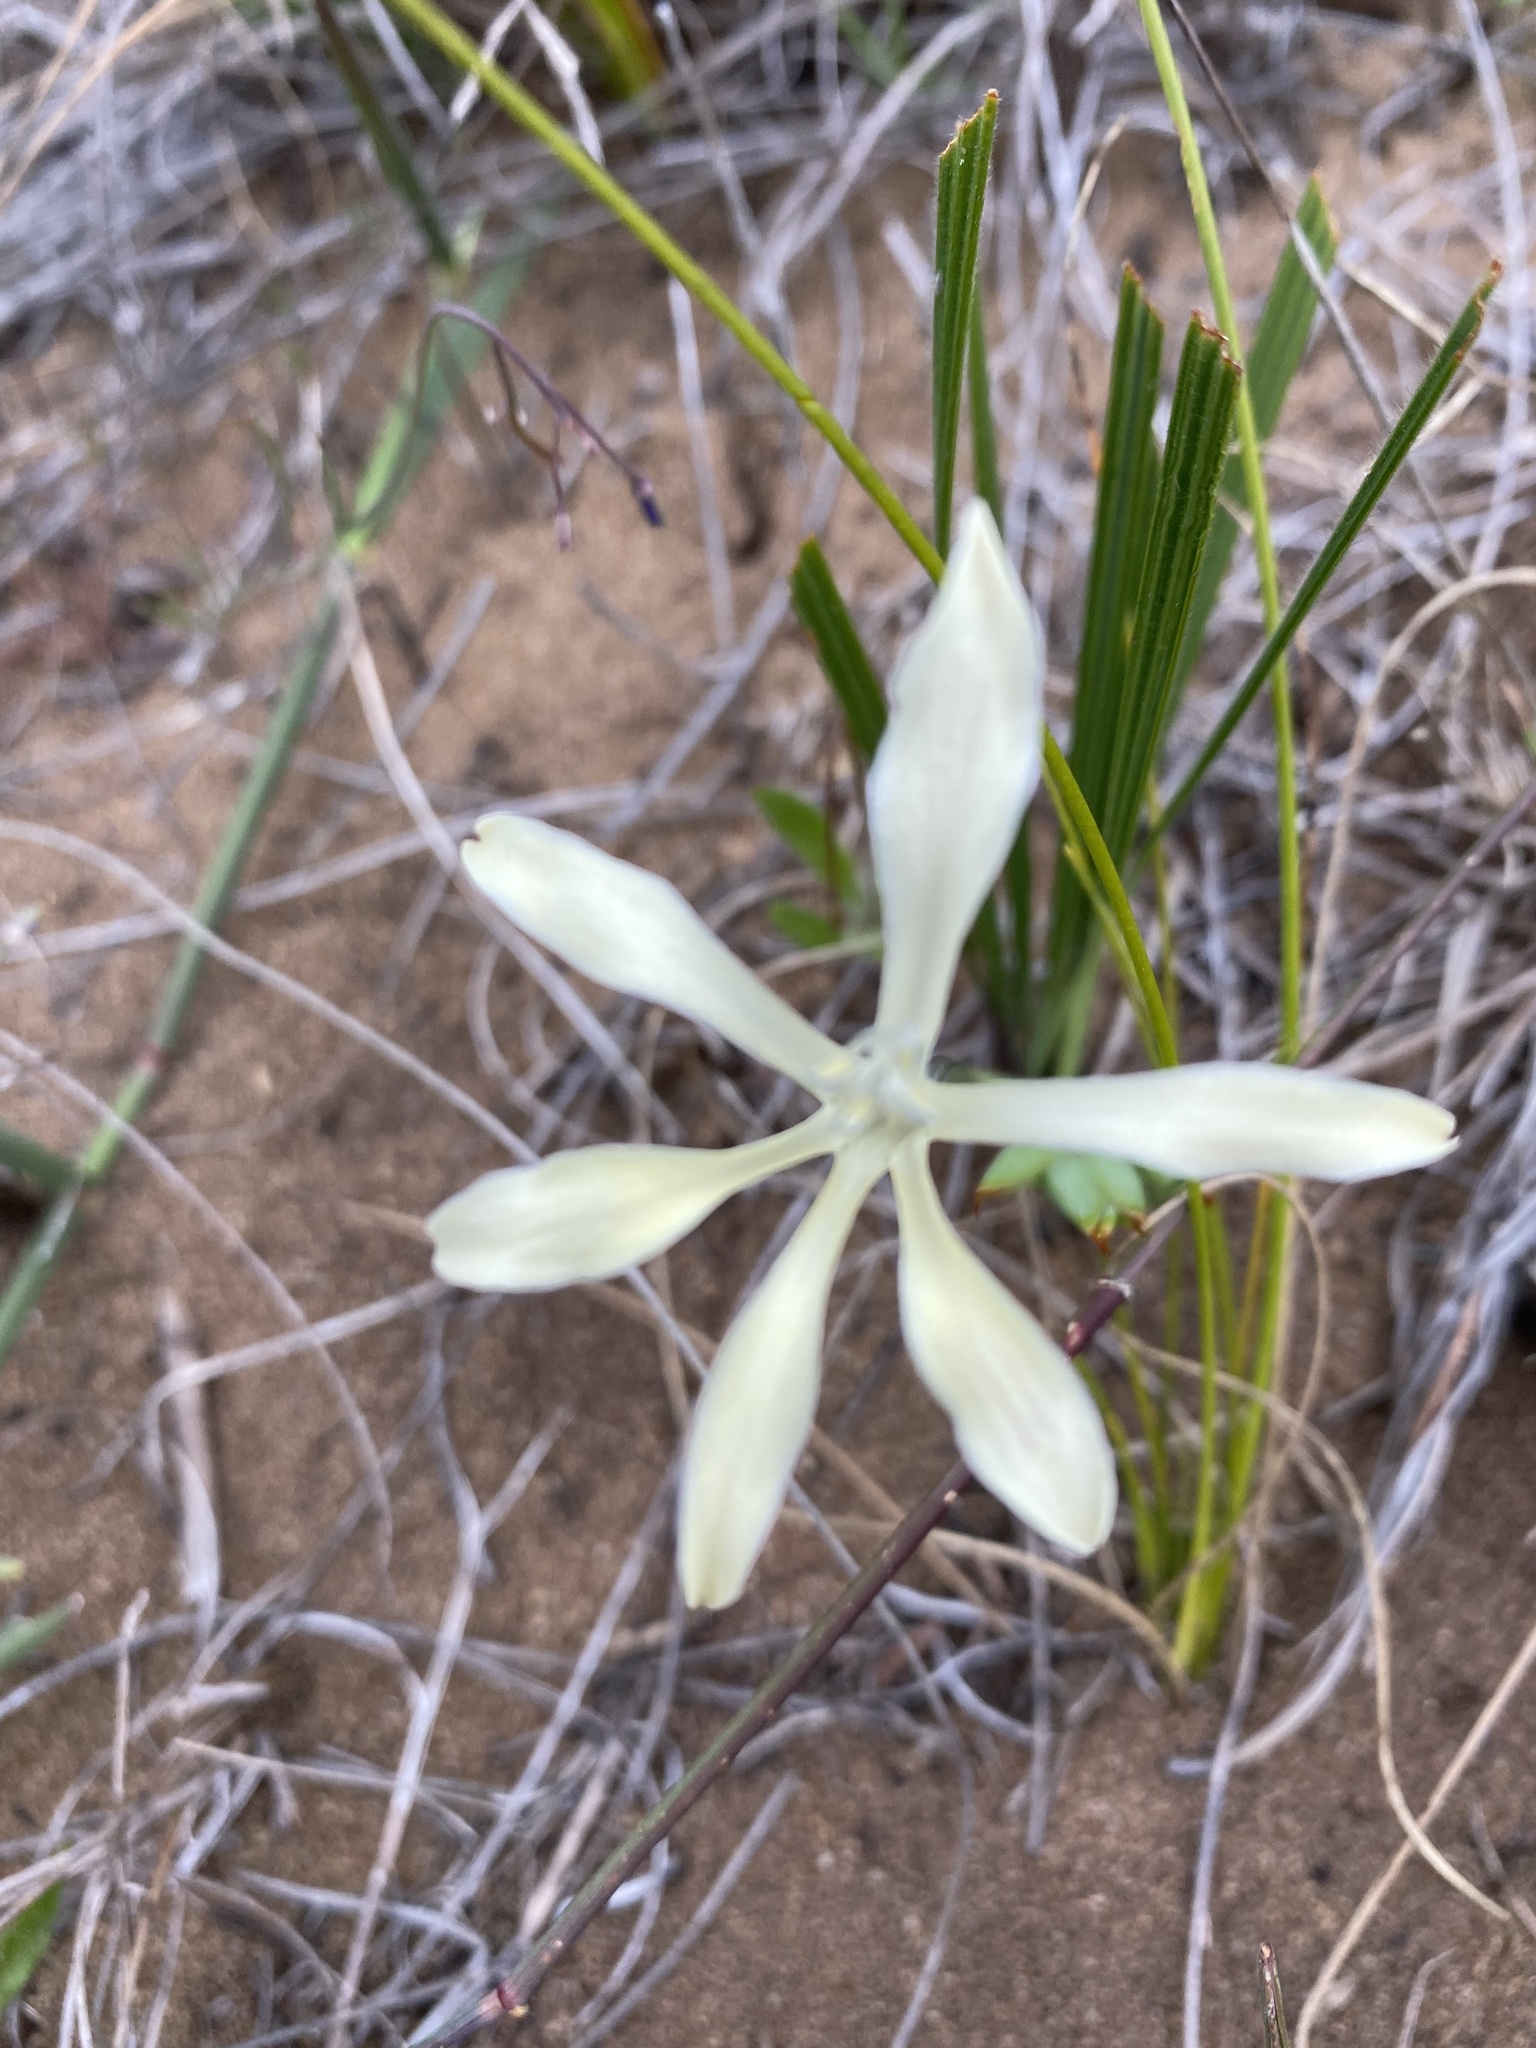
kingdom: Plantae
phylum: Tracheophyta
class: Liliopsida
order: Asparagales
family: Iridaceae
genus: Babiana
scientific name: Babiana tubiflora
